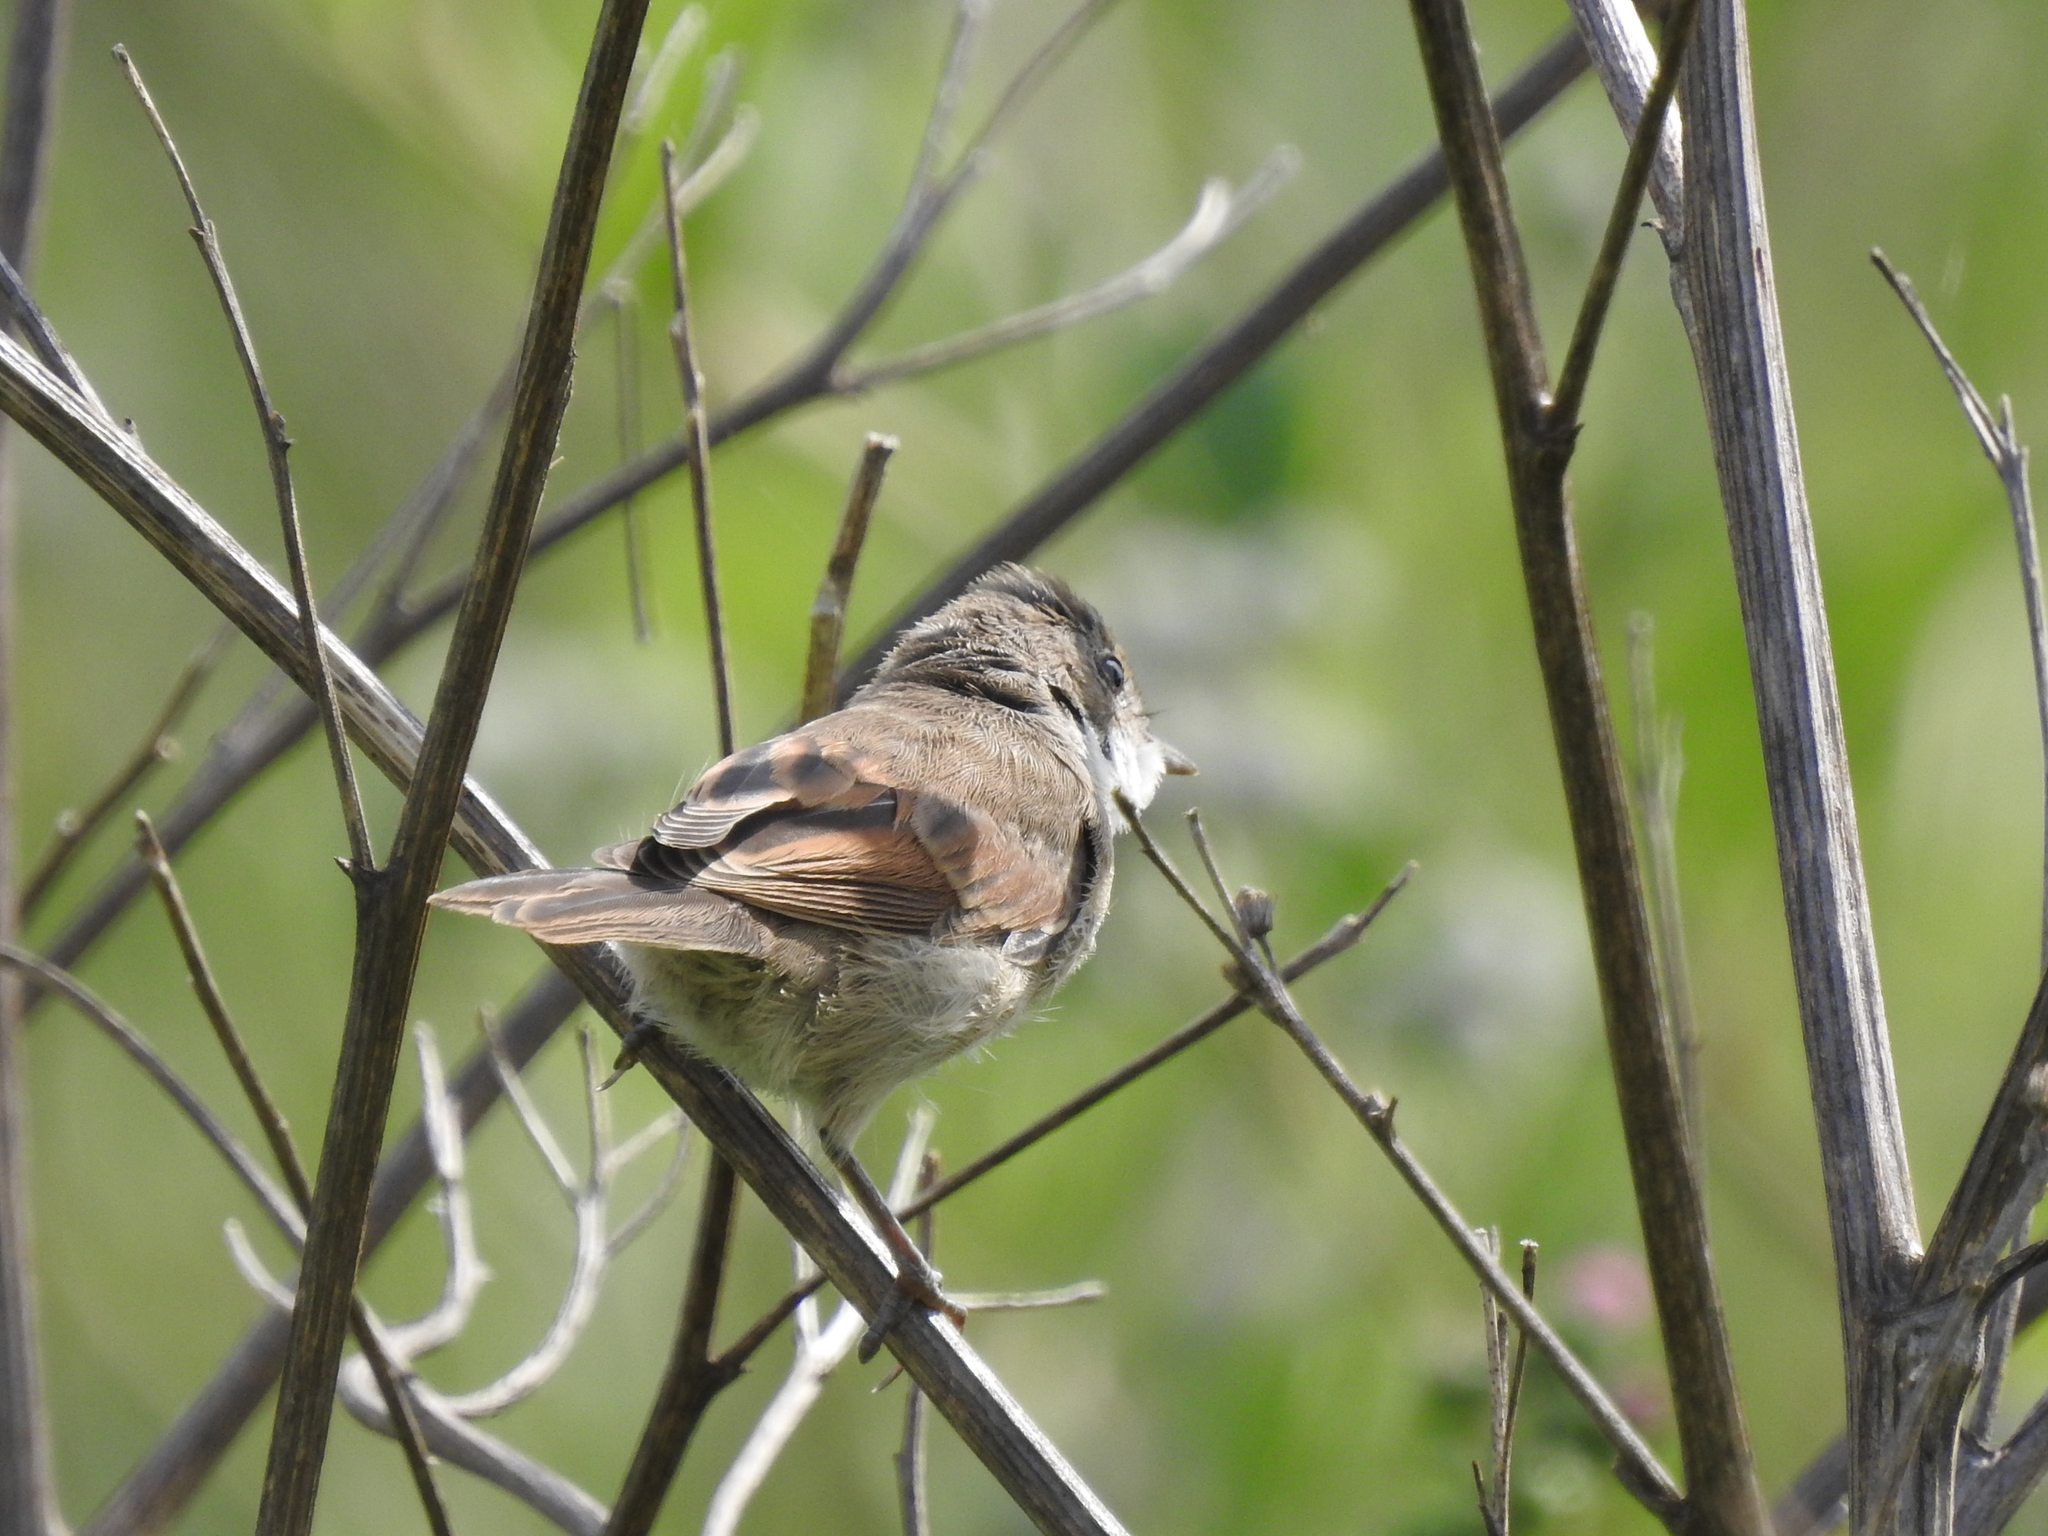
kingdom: Animalia
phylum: Chordata
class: Aves
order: Passeriformes
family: Sylviidae
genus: Sylvia
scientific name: Sylvia communis
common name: Common whitethroat
